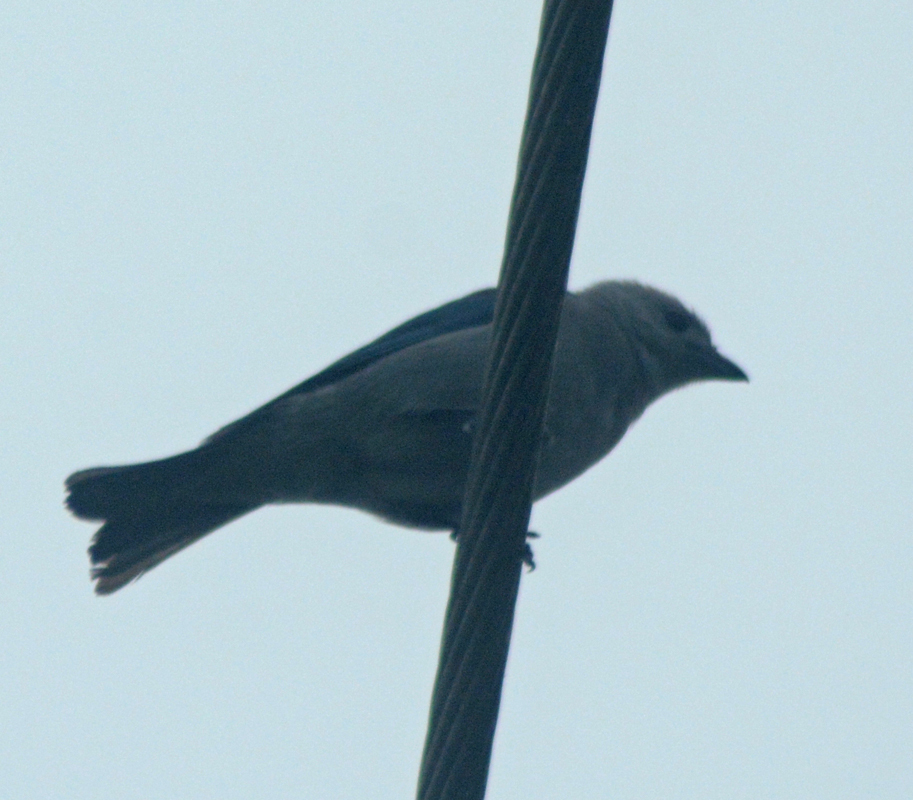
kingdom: Animalia
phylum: Chordata
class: Aves
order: Passeriformes
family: Thraupidae
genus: Thraupis
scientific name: Thraupis episcopus
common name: Blue-grey tanager
